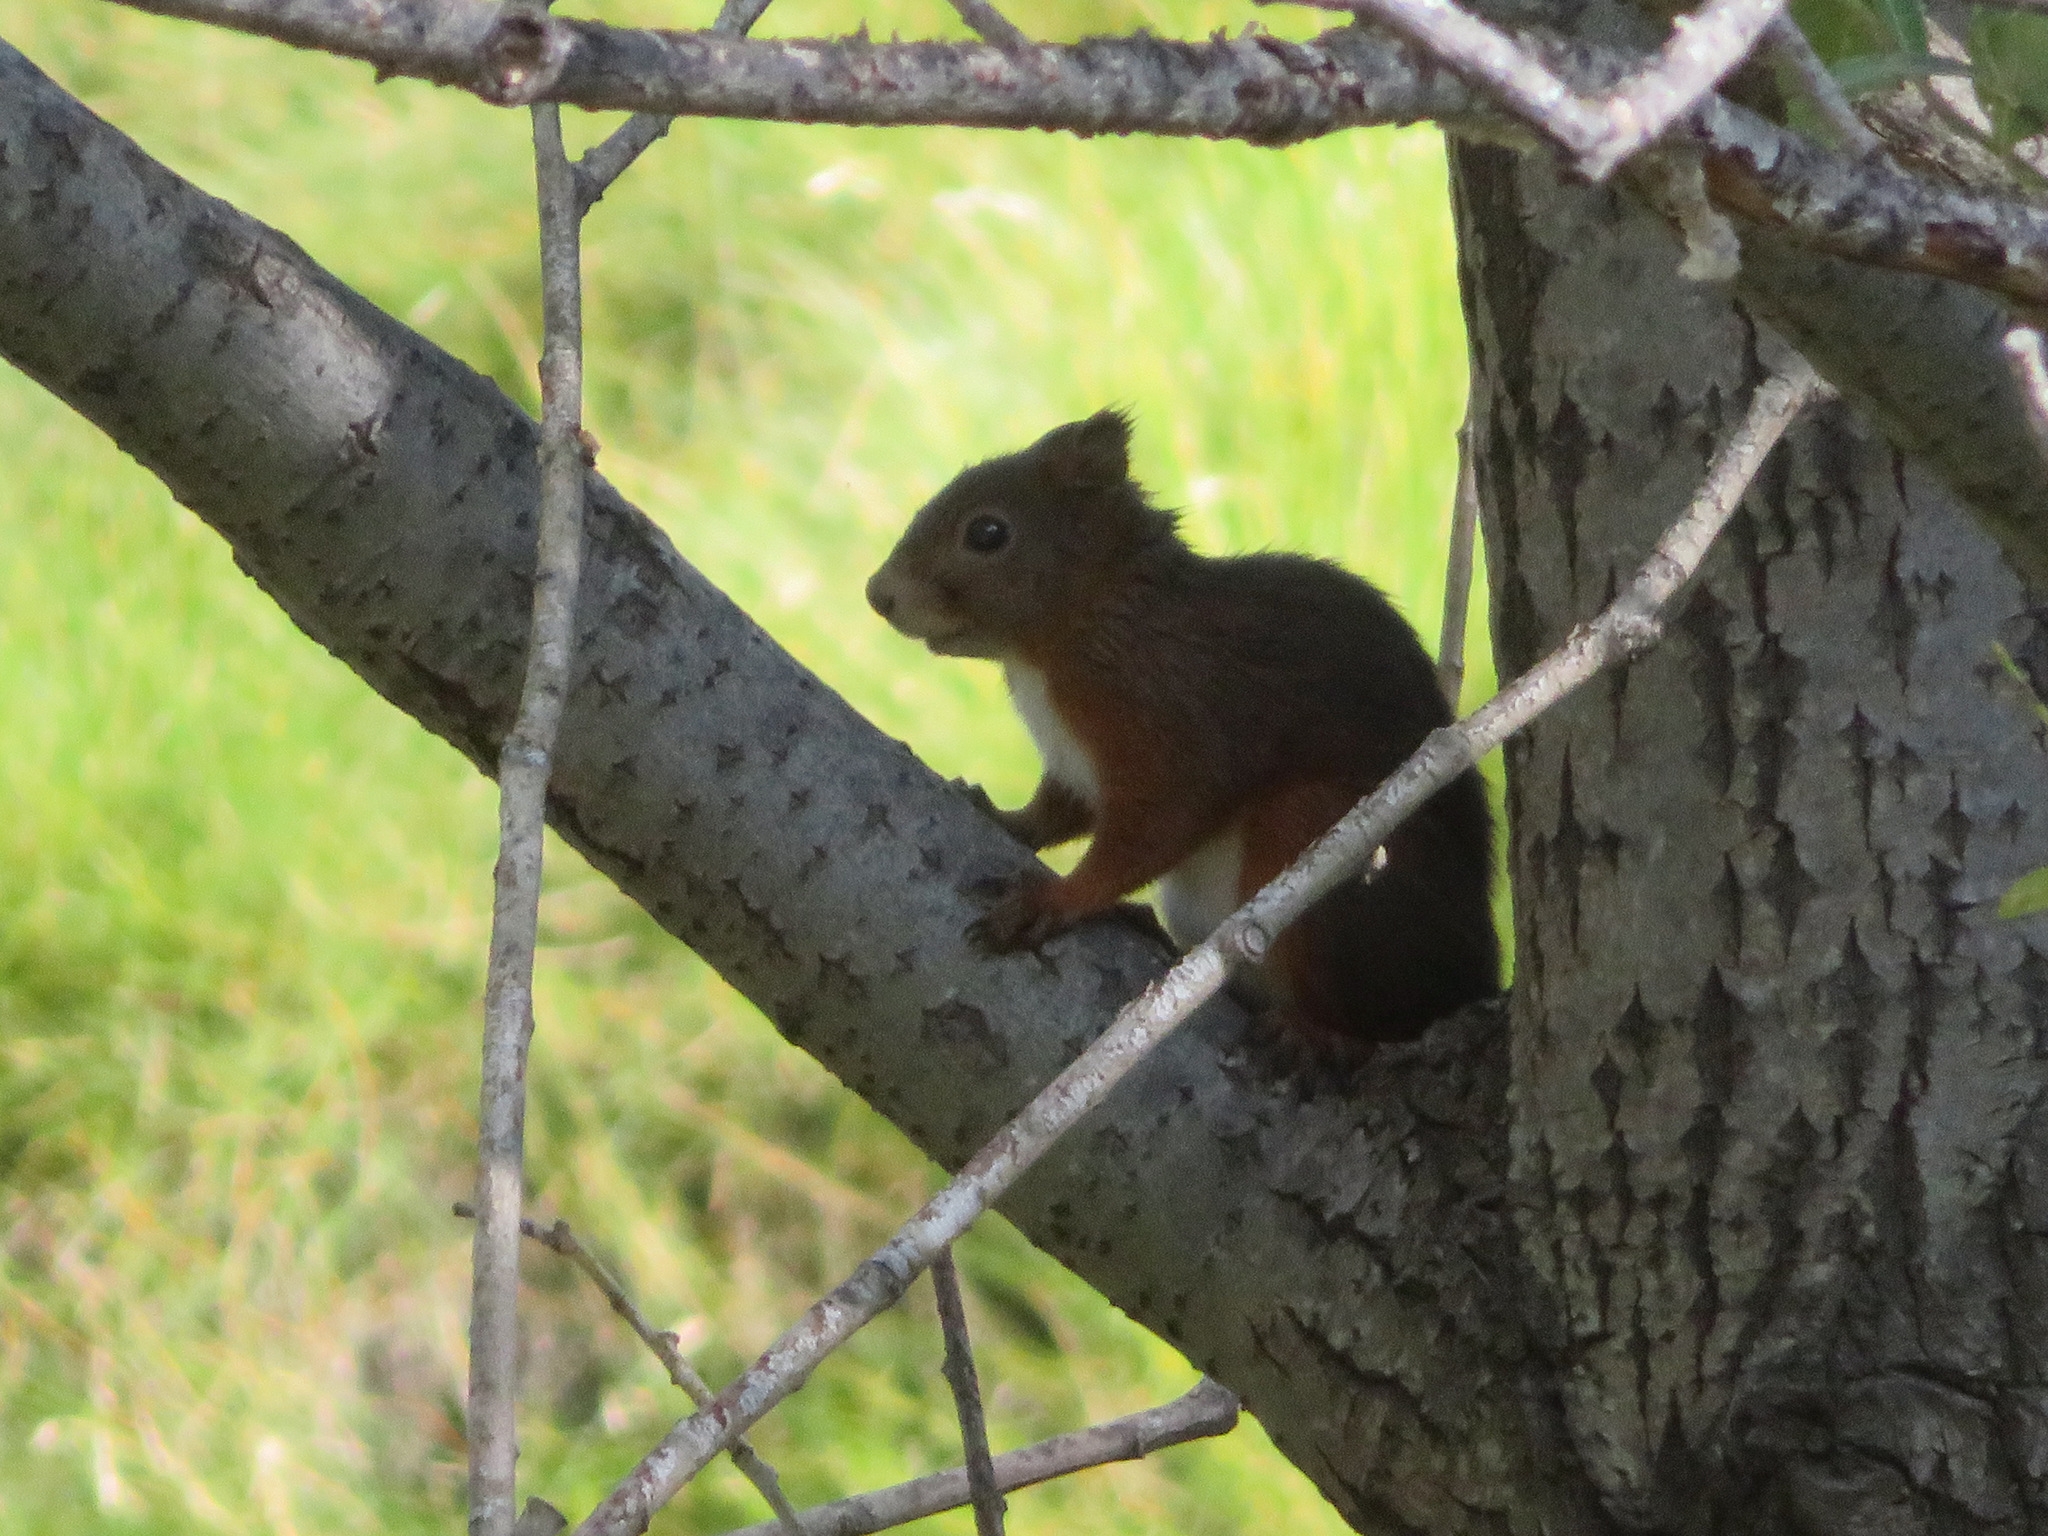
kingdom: Animalia
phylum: Chordata
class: Mammalia
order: Rodentia
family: Sciuridae
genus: Sciurus
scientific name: Sciurus vulgaris
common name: Eurasian red squirrel
